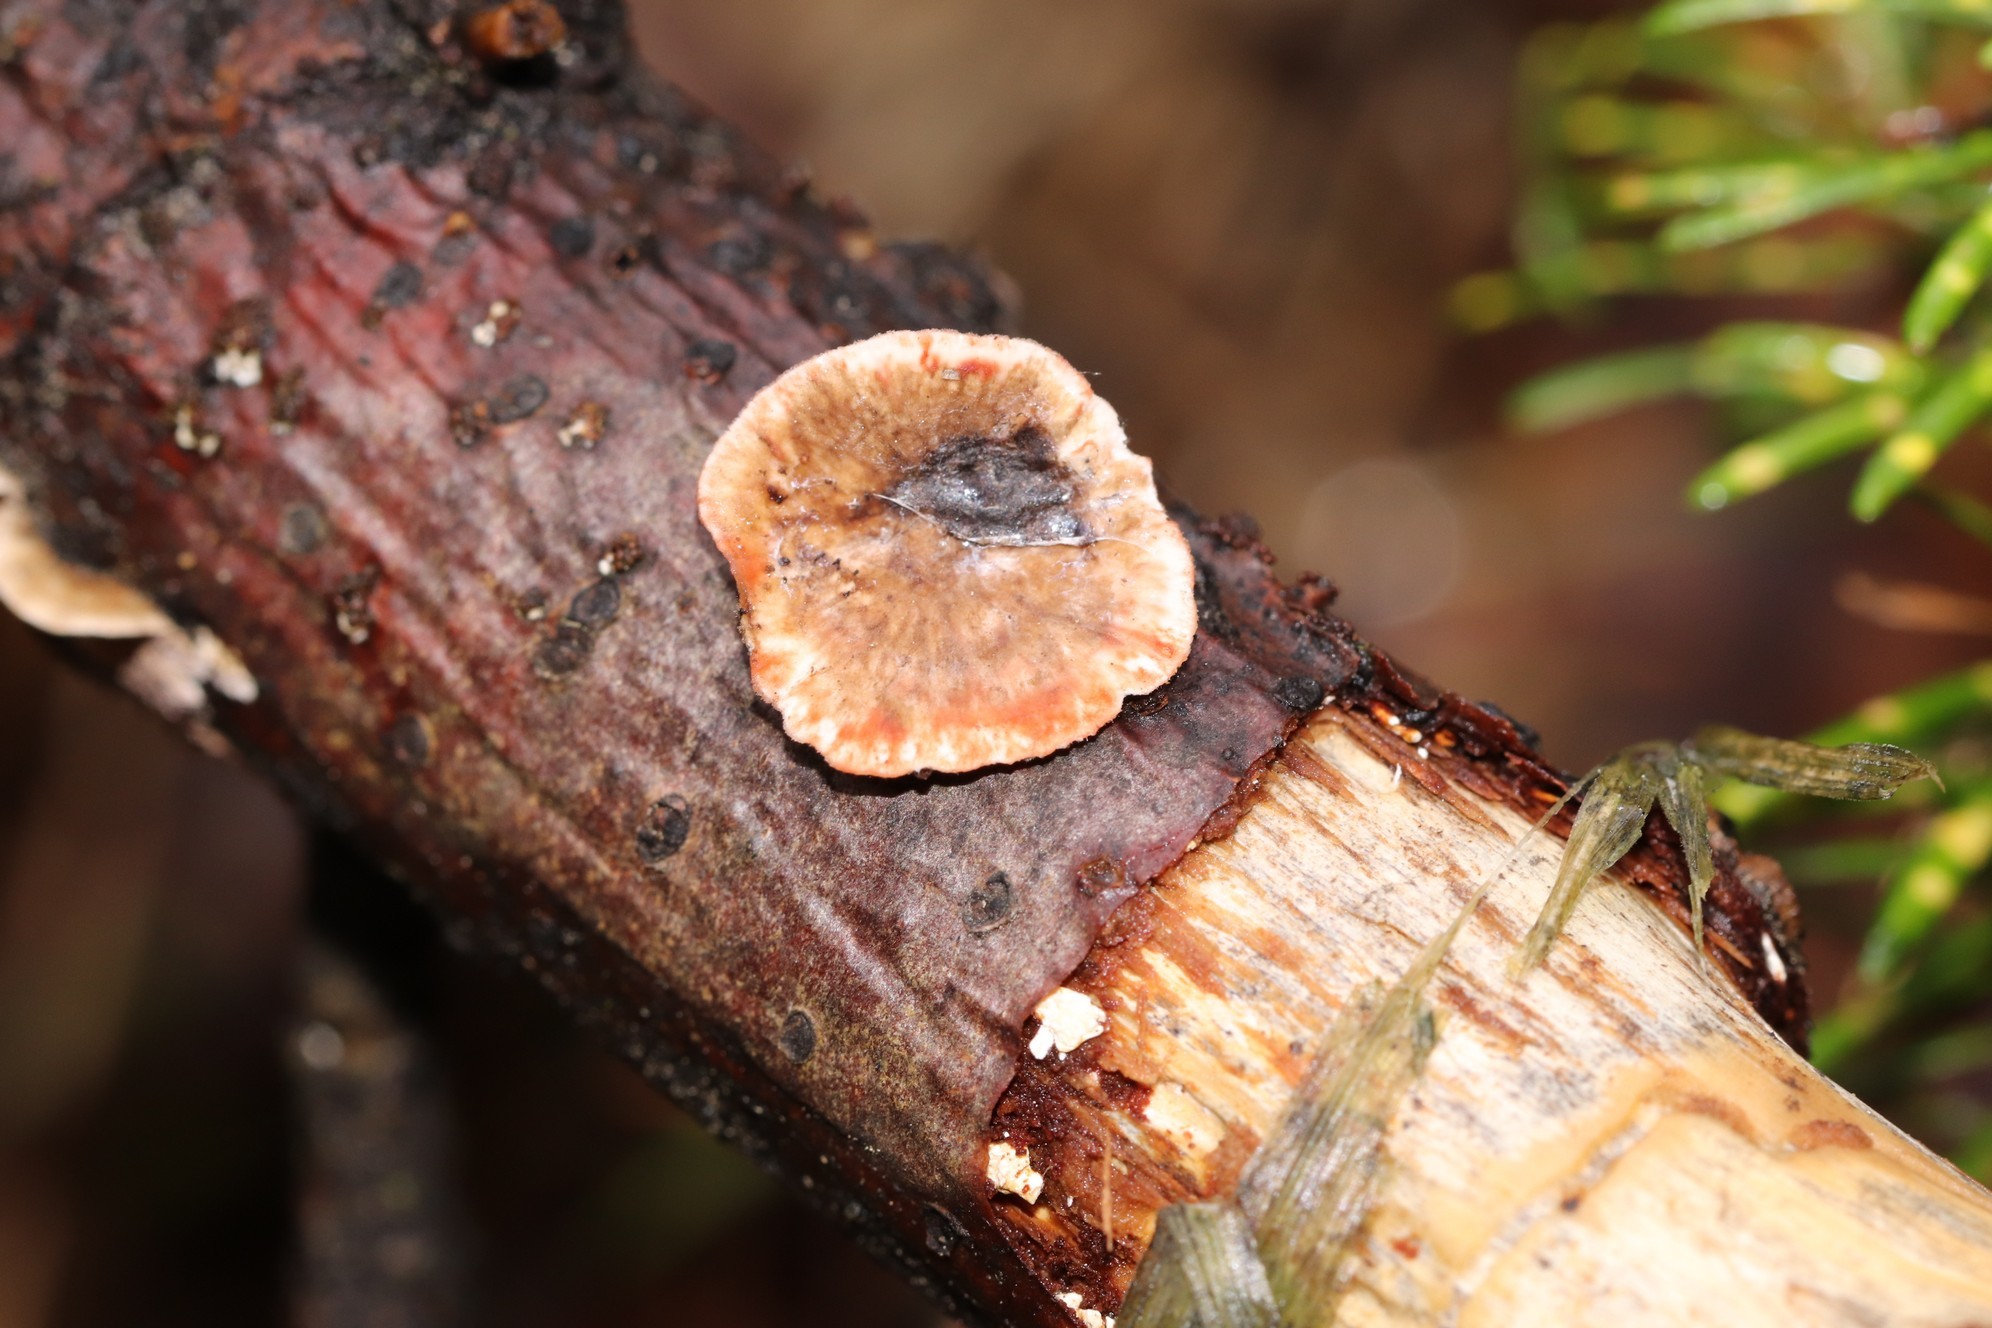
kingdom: Fungi
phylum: Basidiomycota
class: Agaricomycetes
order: Russulales
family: Stereaceae
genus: Stereum
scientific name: Stereum sanguinolentum
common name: Bleeding conifer crust
